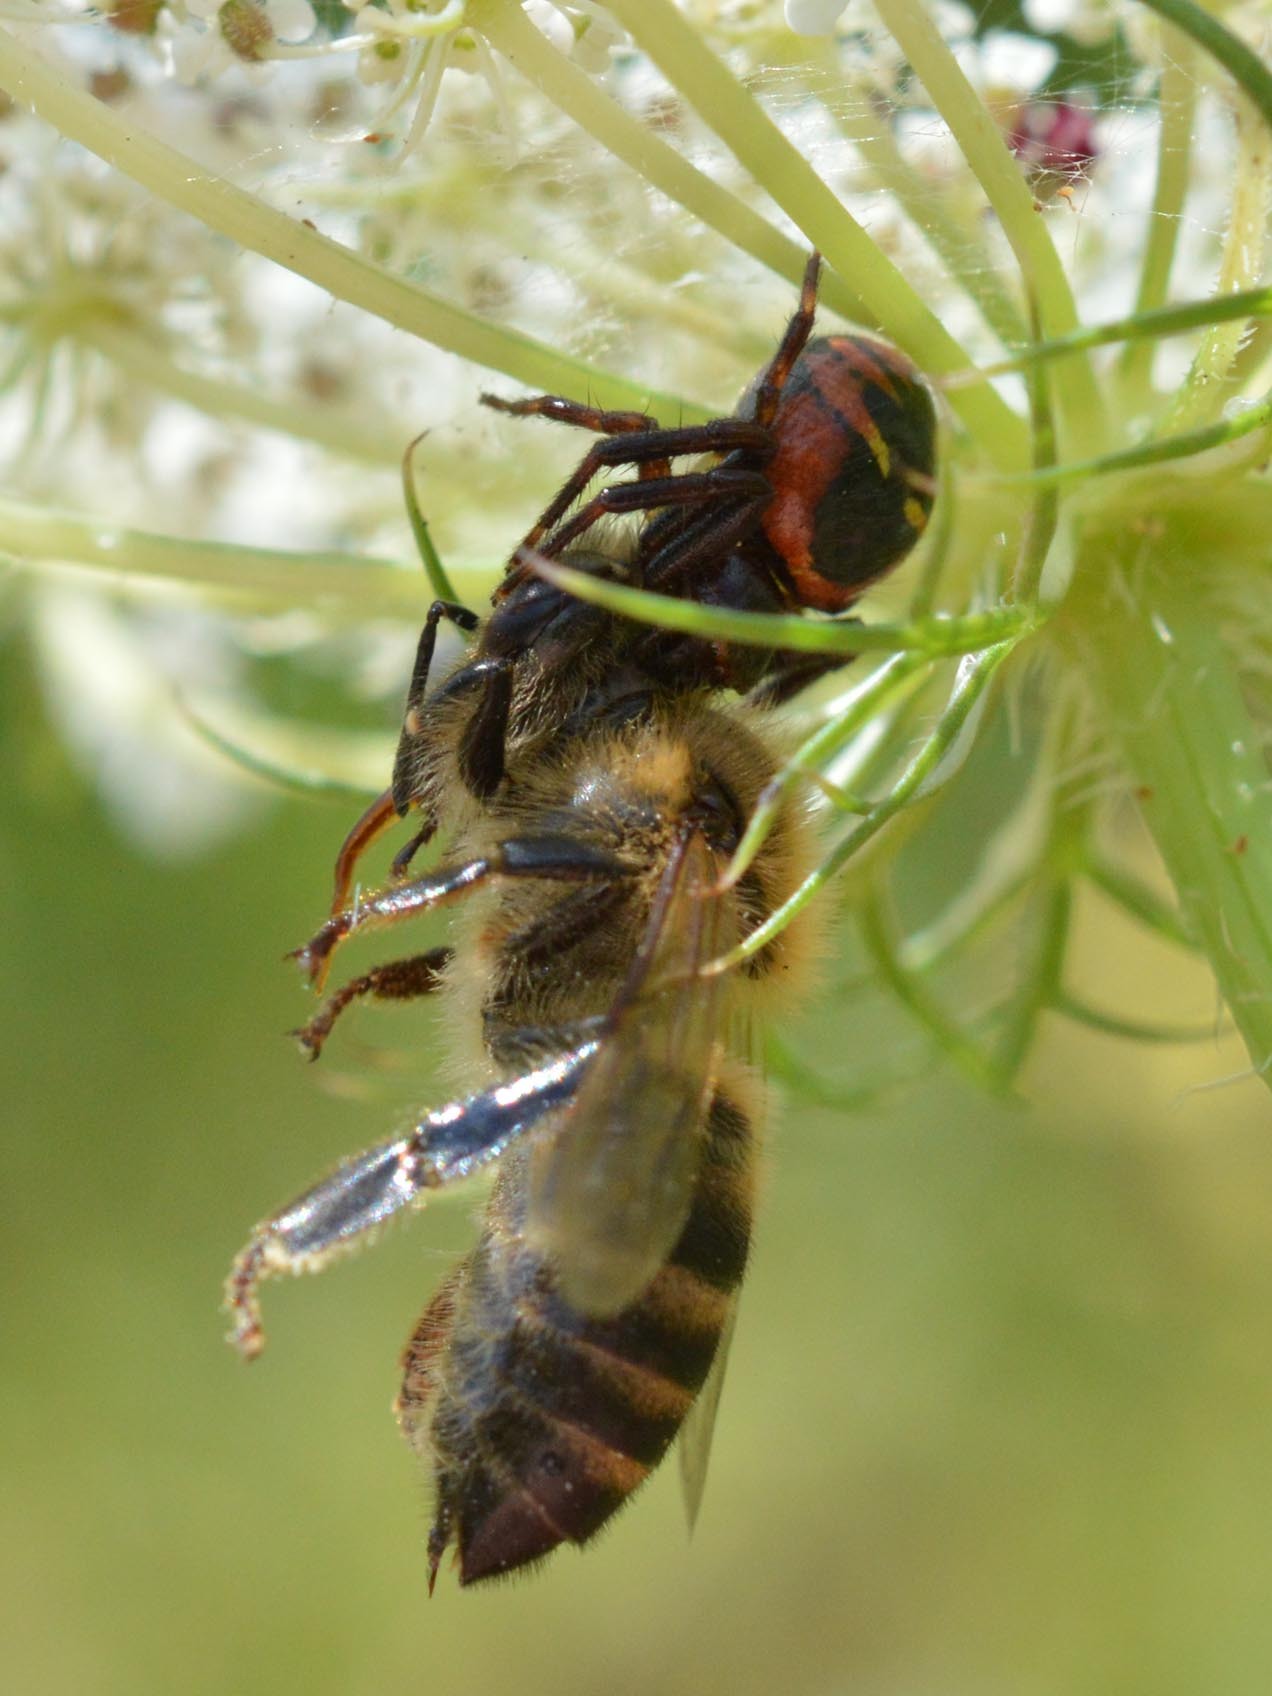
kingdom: Animalia
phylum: Arthropoda
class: Arachnida
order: Araneae
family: Thomisidae
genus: Synema
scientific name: Synema globosum
